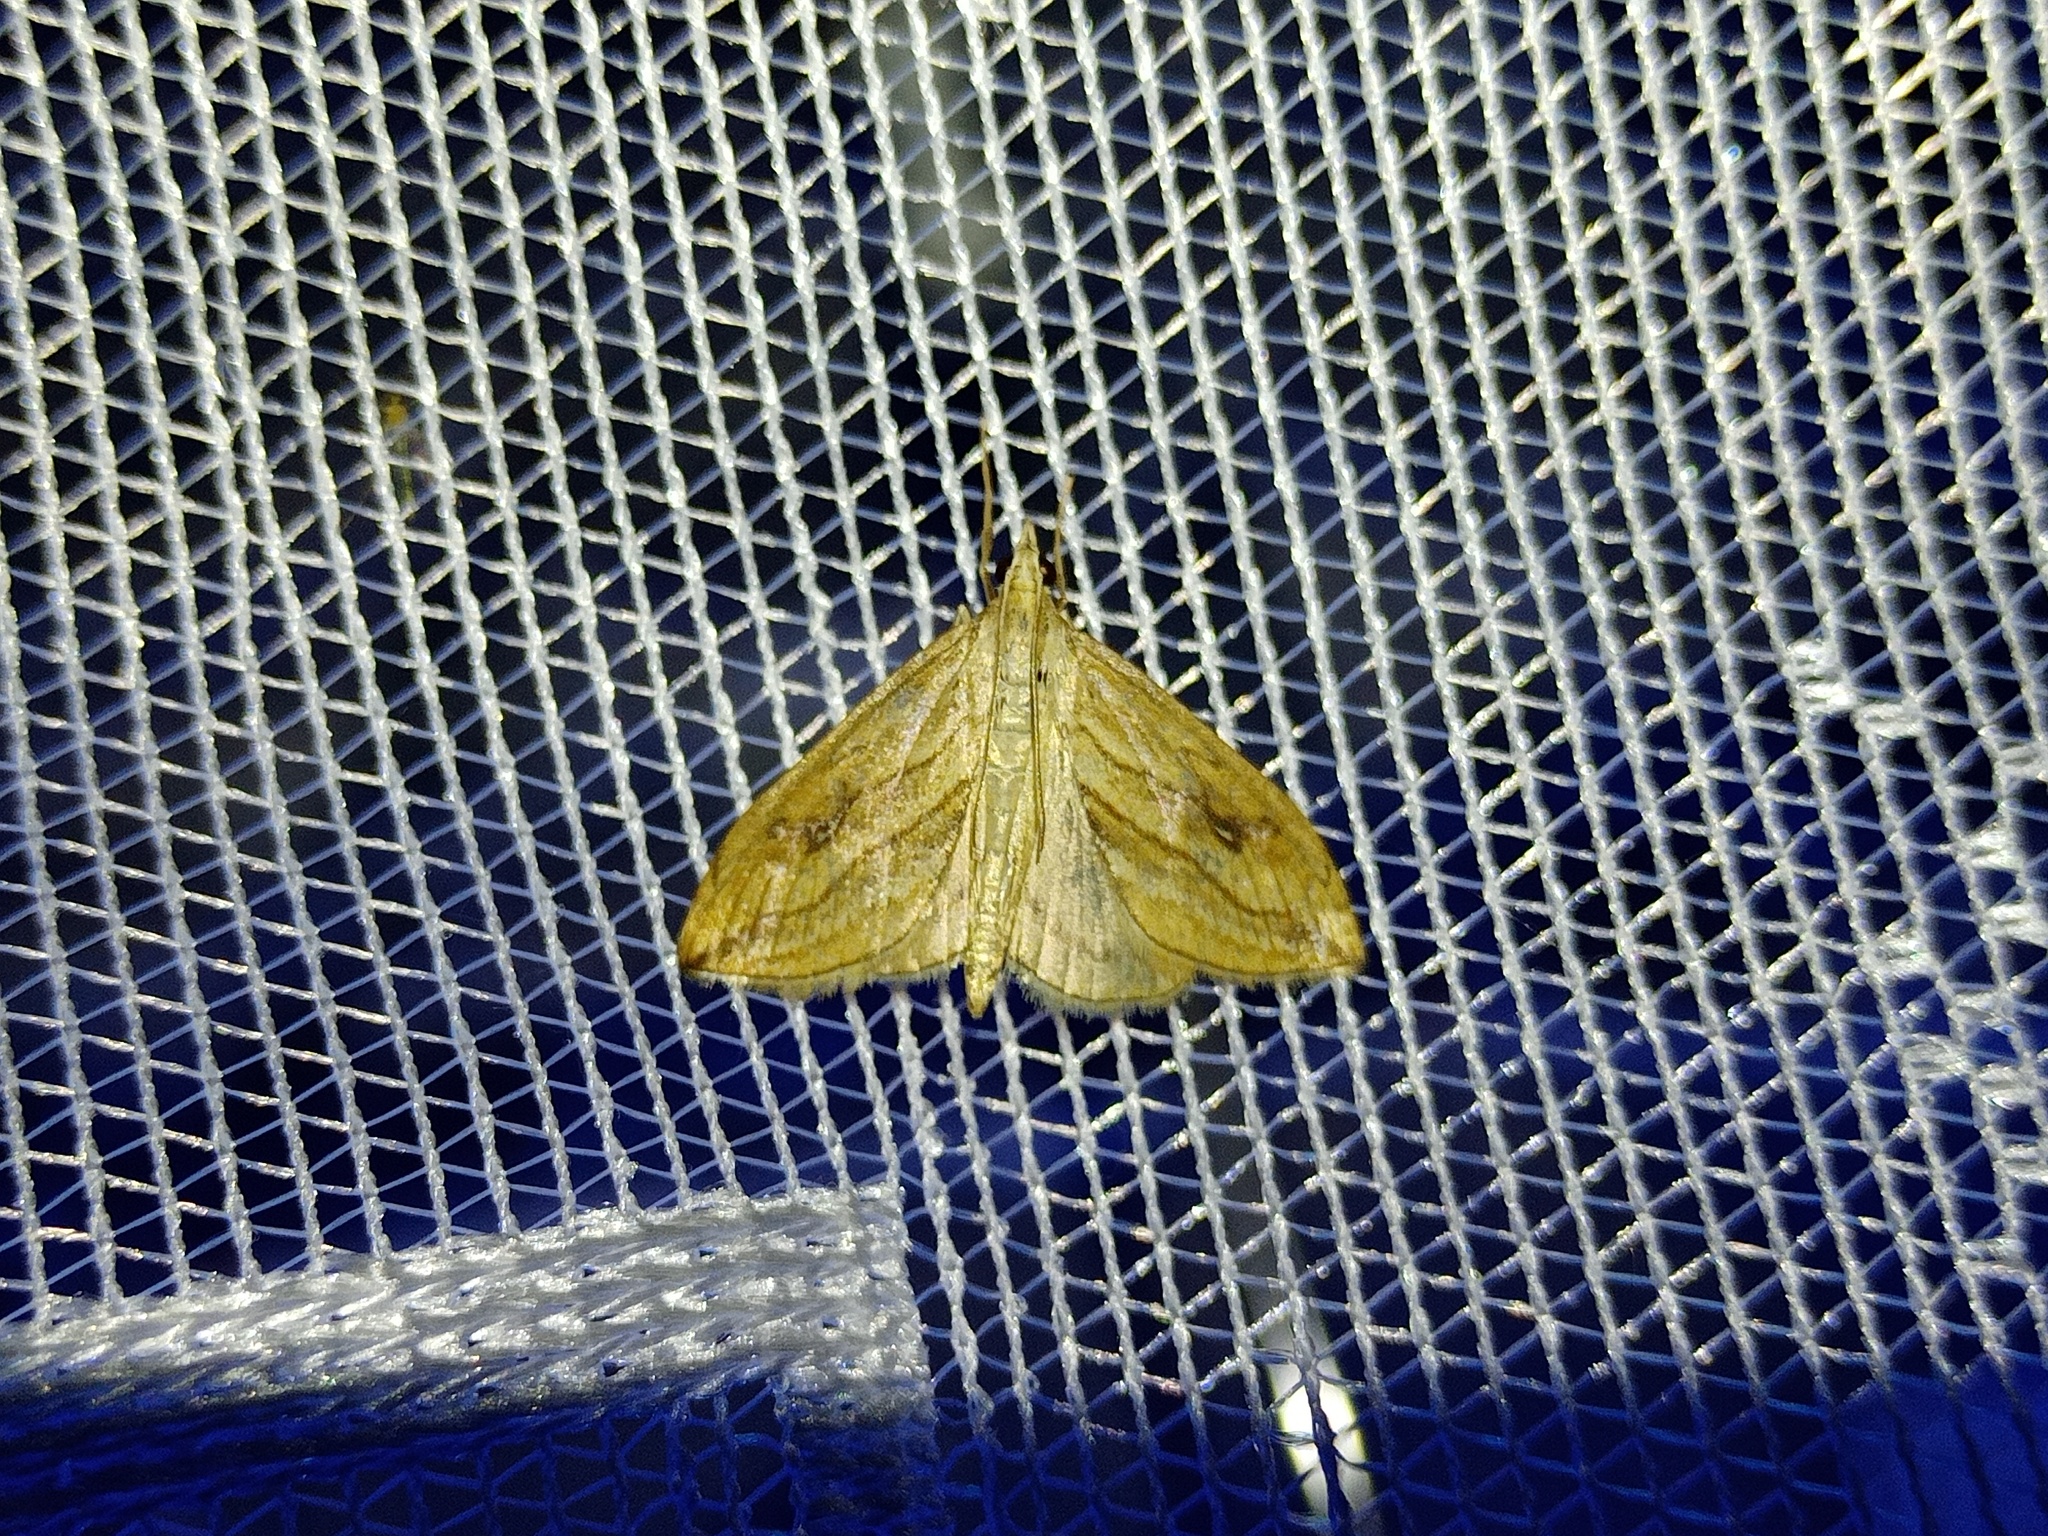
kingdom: Animalia
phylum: Arthropoda
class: Insecta
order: Lepidoptera
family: Crambidae
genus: Evergestis
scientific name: Evergestis forficalis
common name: Garden pebble
